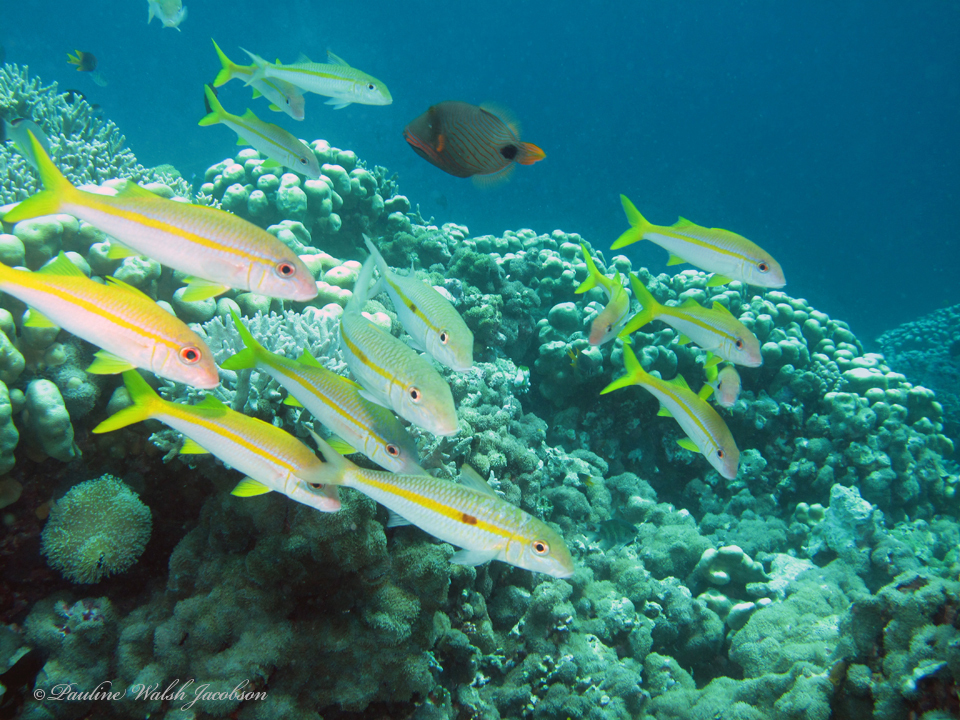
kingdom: Animalia
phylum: Chordata
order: Perciformes
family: Mullidae
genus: Mulloidichthys
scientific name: Mulloidichthys flavolineatus
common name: Yellowstripe goatfish
